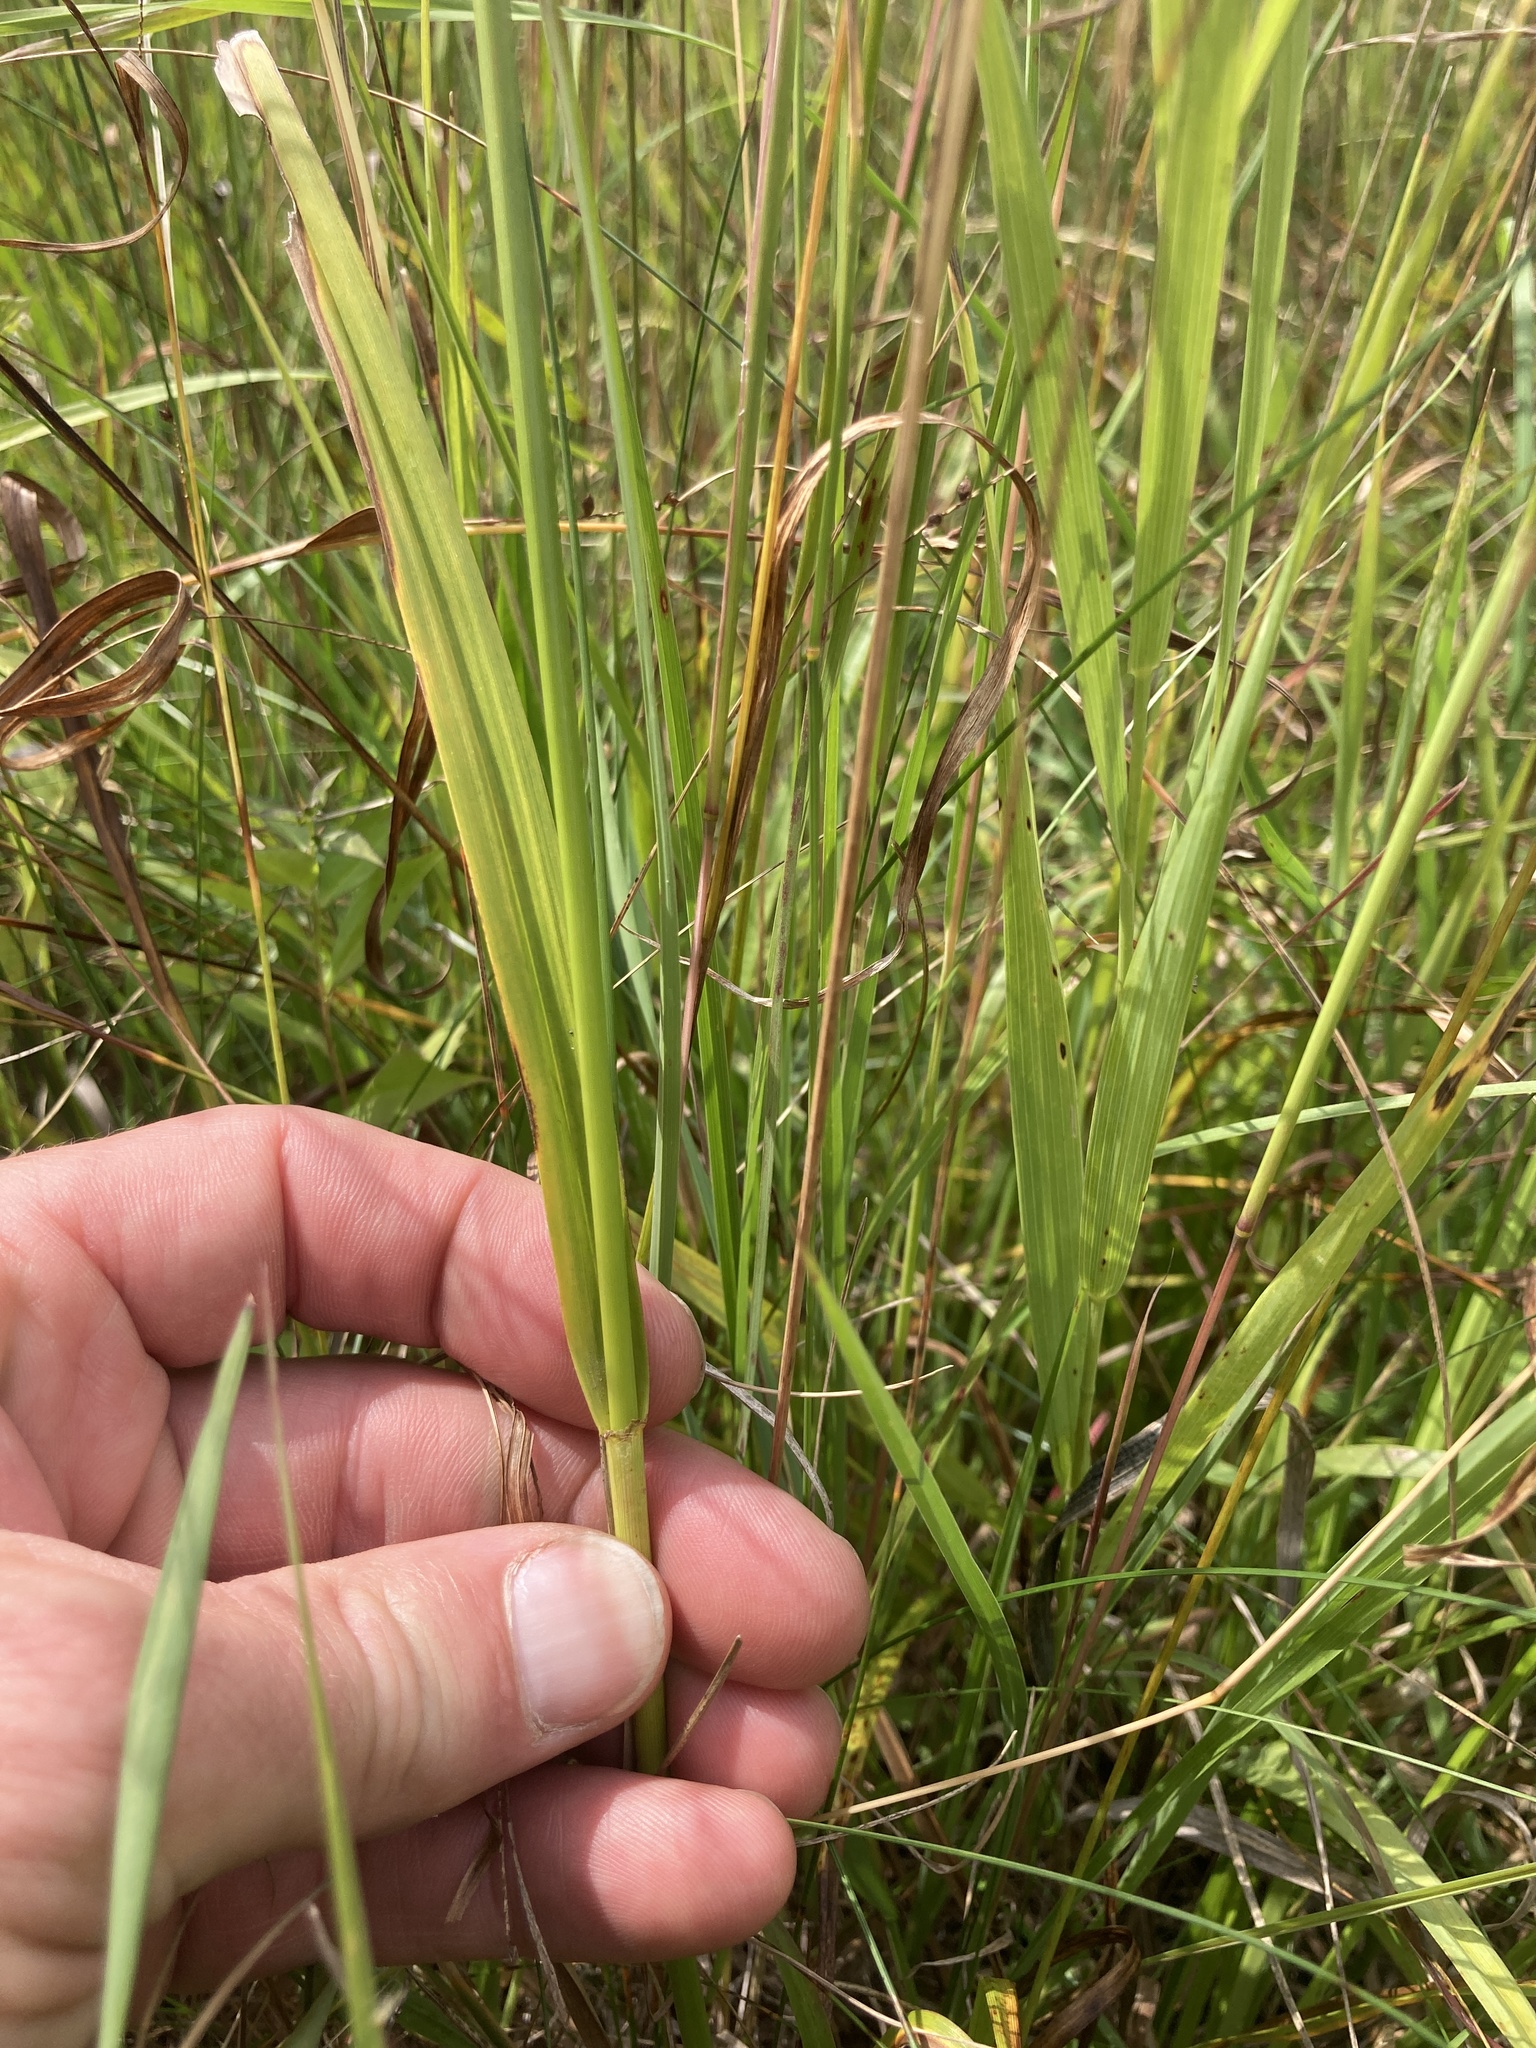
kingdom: Plantae
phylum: Tracheophyta
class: Liliopsida
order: Poales
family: Cyperaceae
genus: Scirpus
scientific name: Scirpus pendulus
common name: Nodding bulrush
